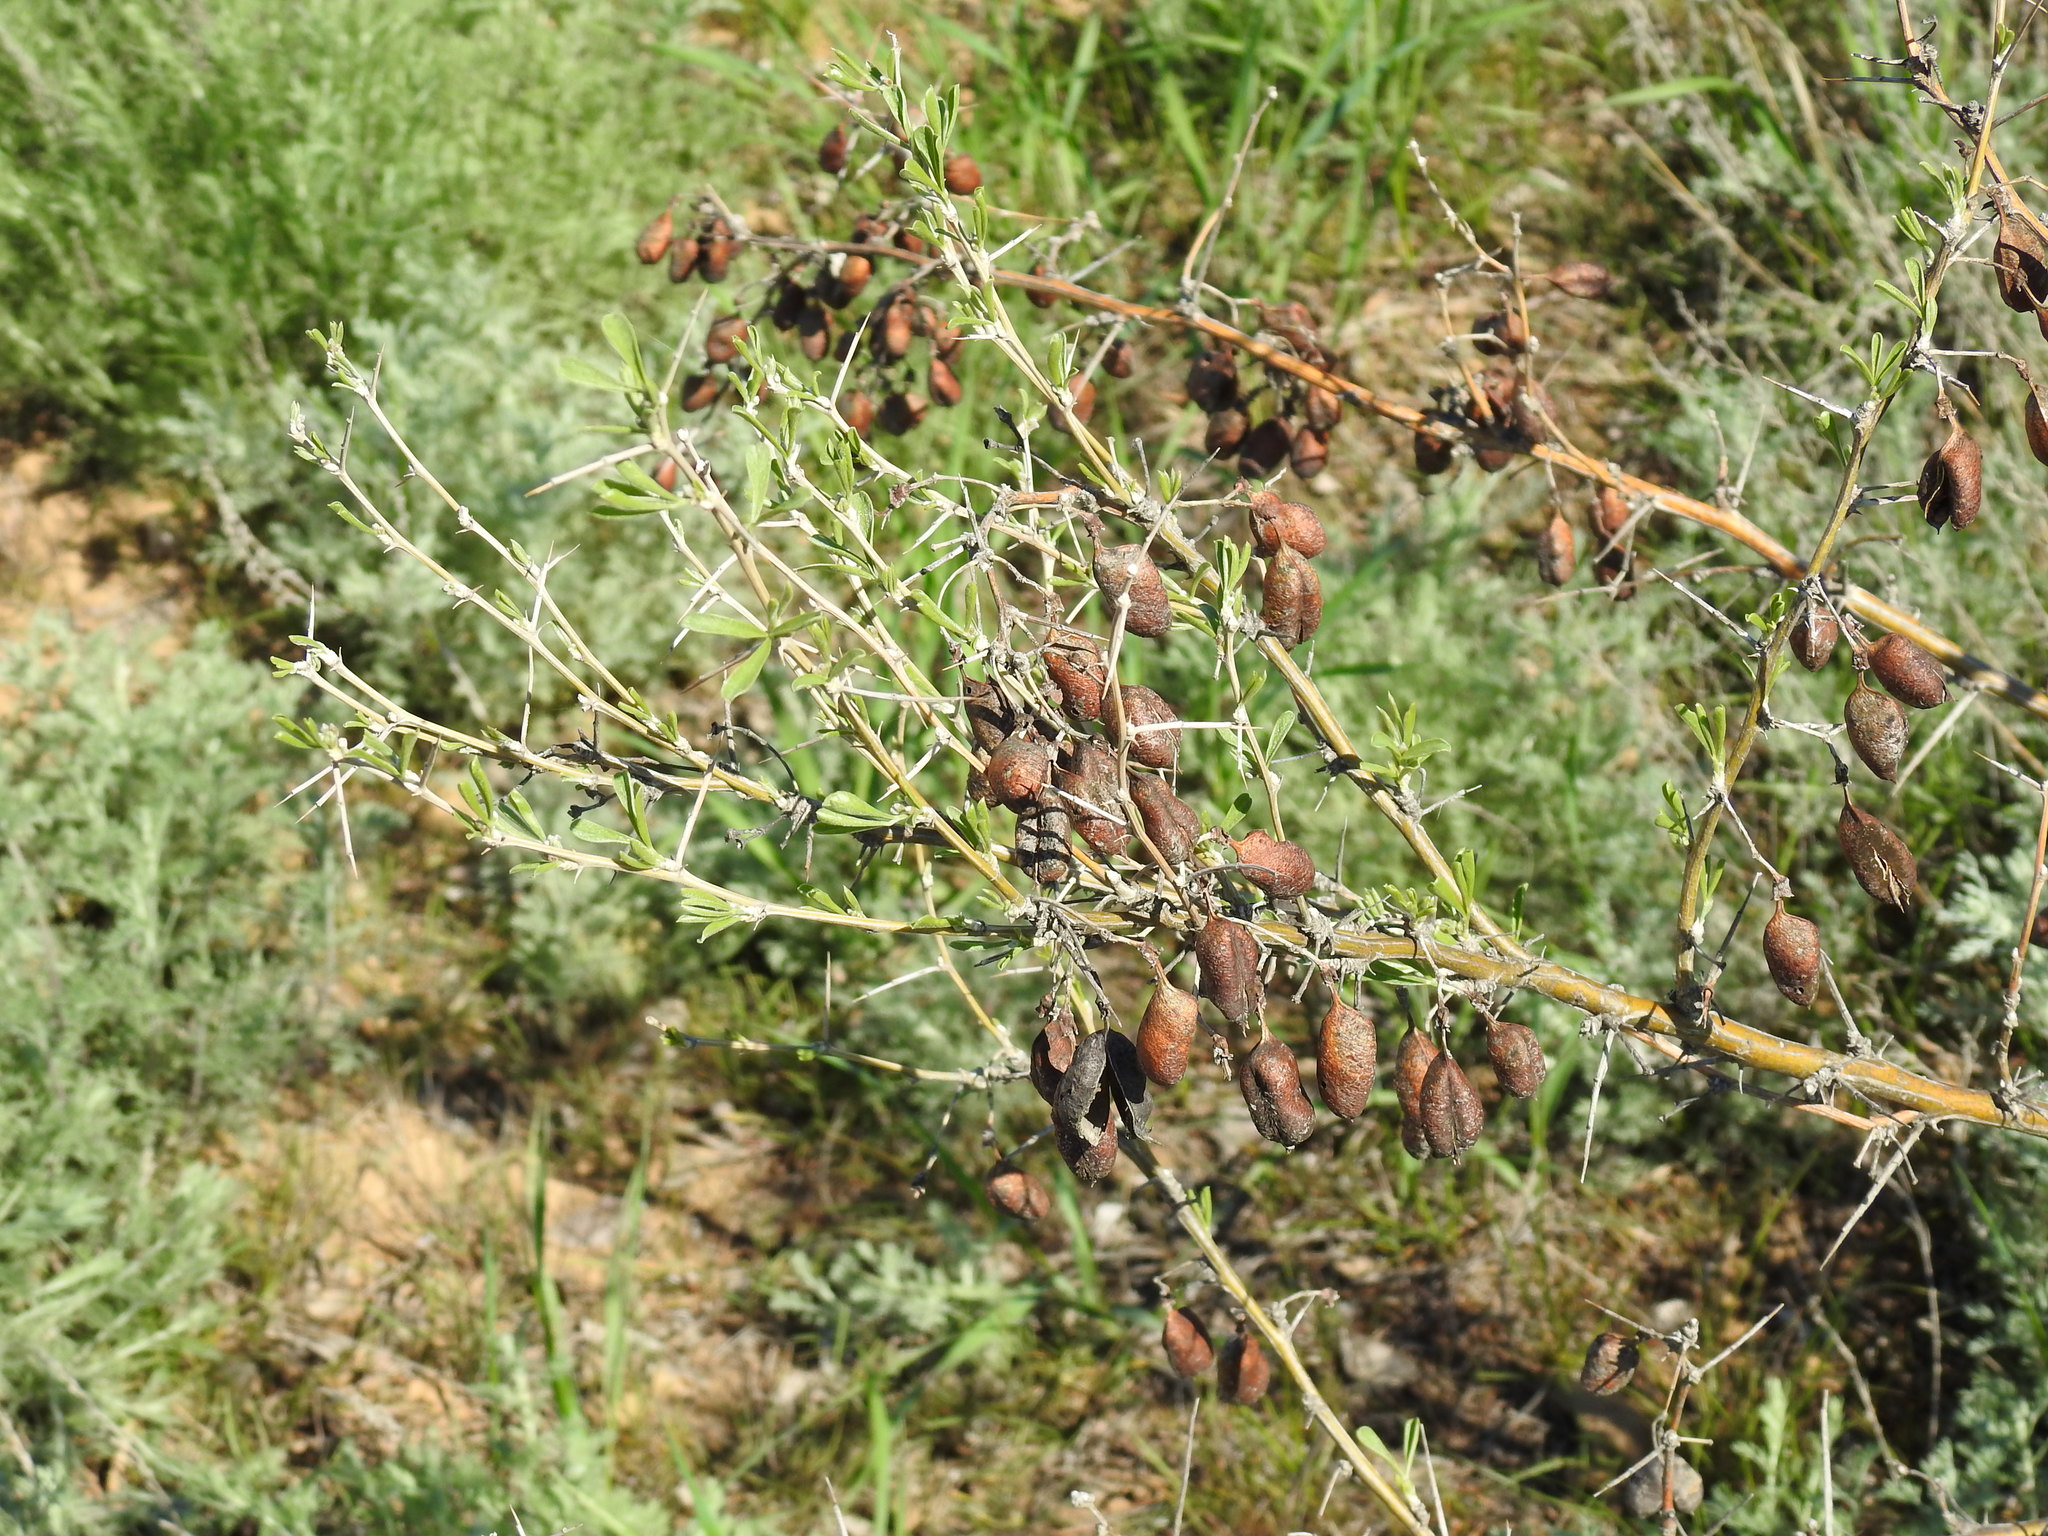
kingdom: Plantae
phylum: Tracheophyta
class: Magnoliopsida
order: Fabales
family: Fabaceae
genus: Caragana
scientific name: Caragana halodendron
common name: Siberian salt-tree
